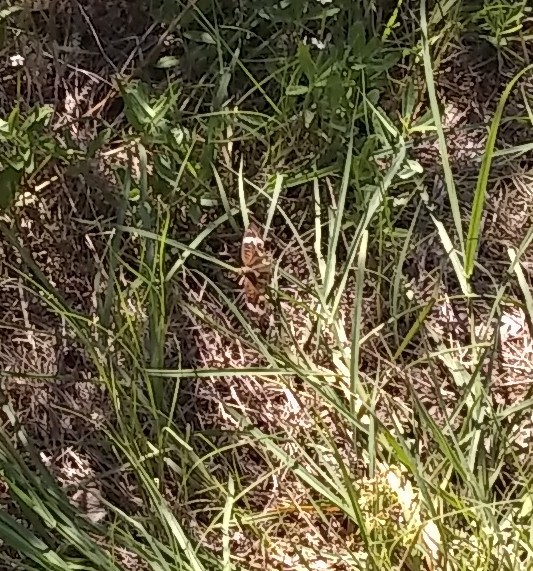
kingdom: Animalia
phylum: Arthropoda
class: Insecta
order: Lepidoptera
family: Nymphalidae
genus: Junonia
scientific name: Junonia coenia
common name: Common buckeye
